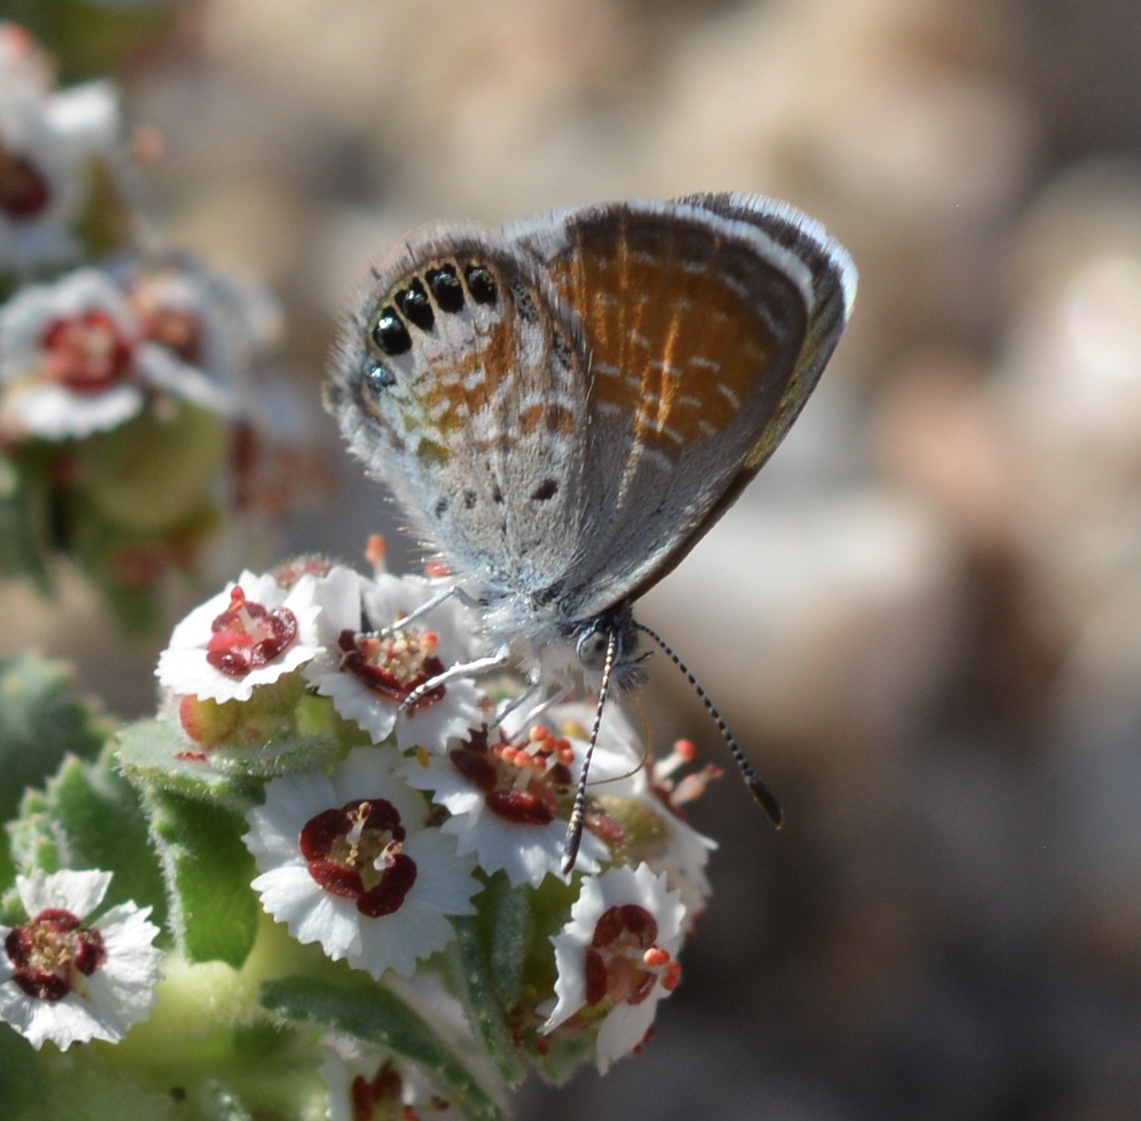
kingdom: Animalia
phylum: Arthropoda
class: Insecta
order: Lepidoptera
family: Lycaenidae
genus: Brephidium
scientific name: Brephidium exilis
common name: Pygmy blue
